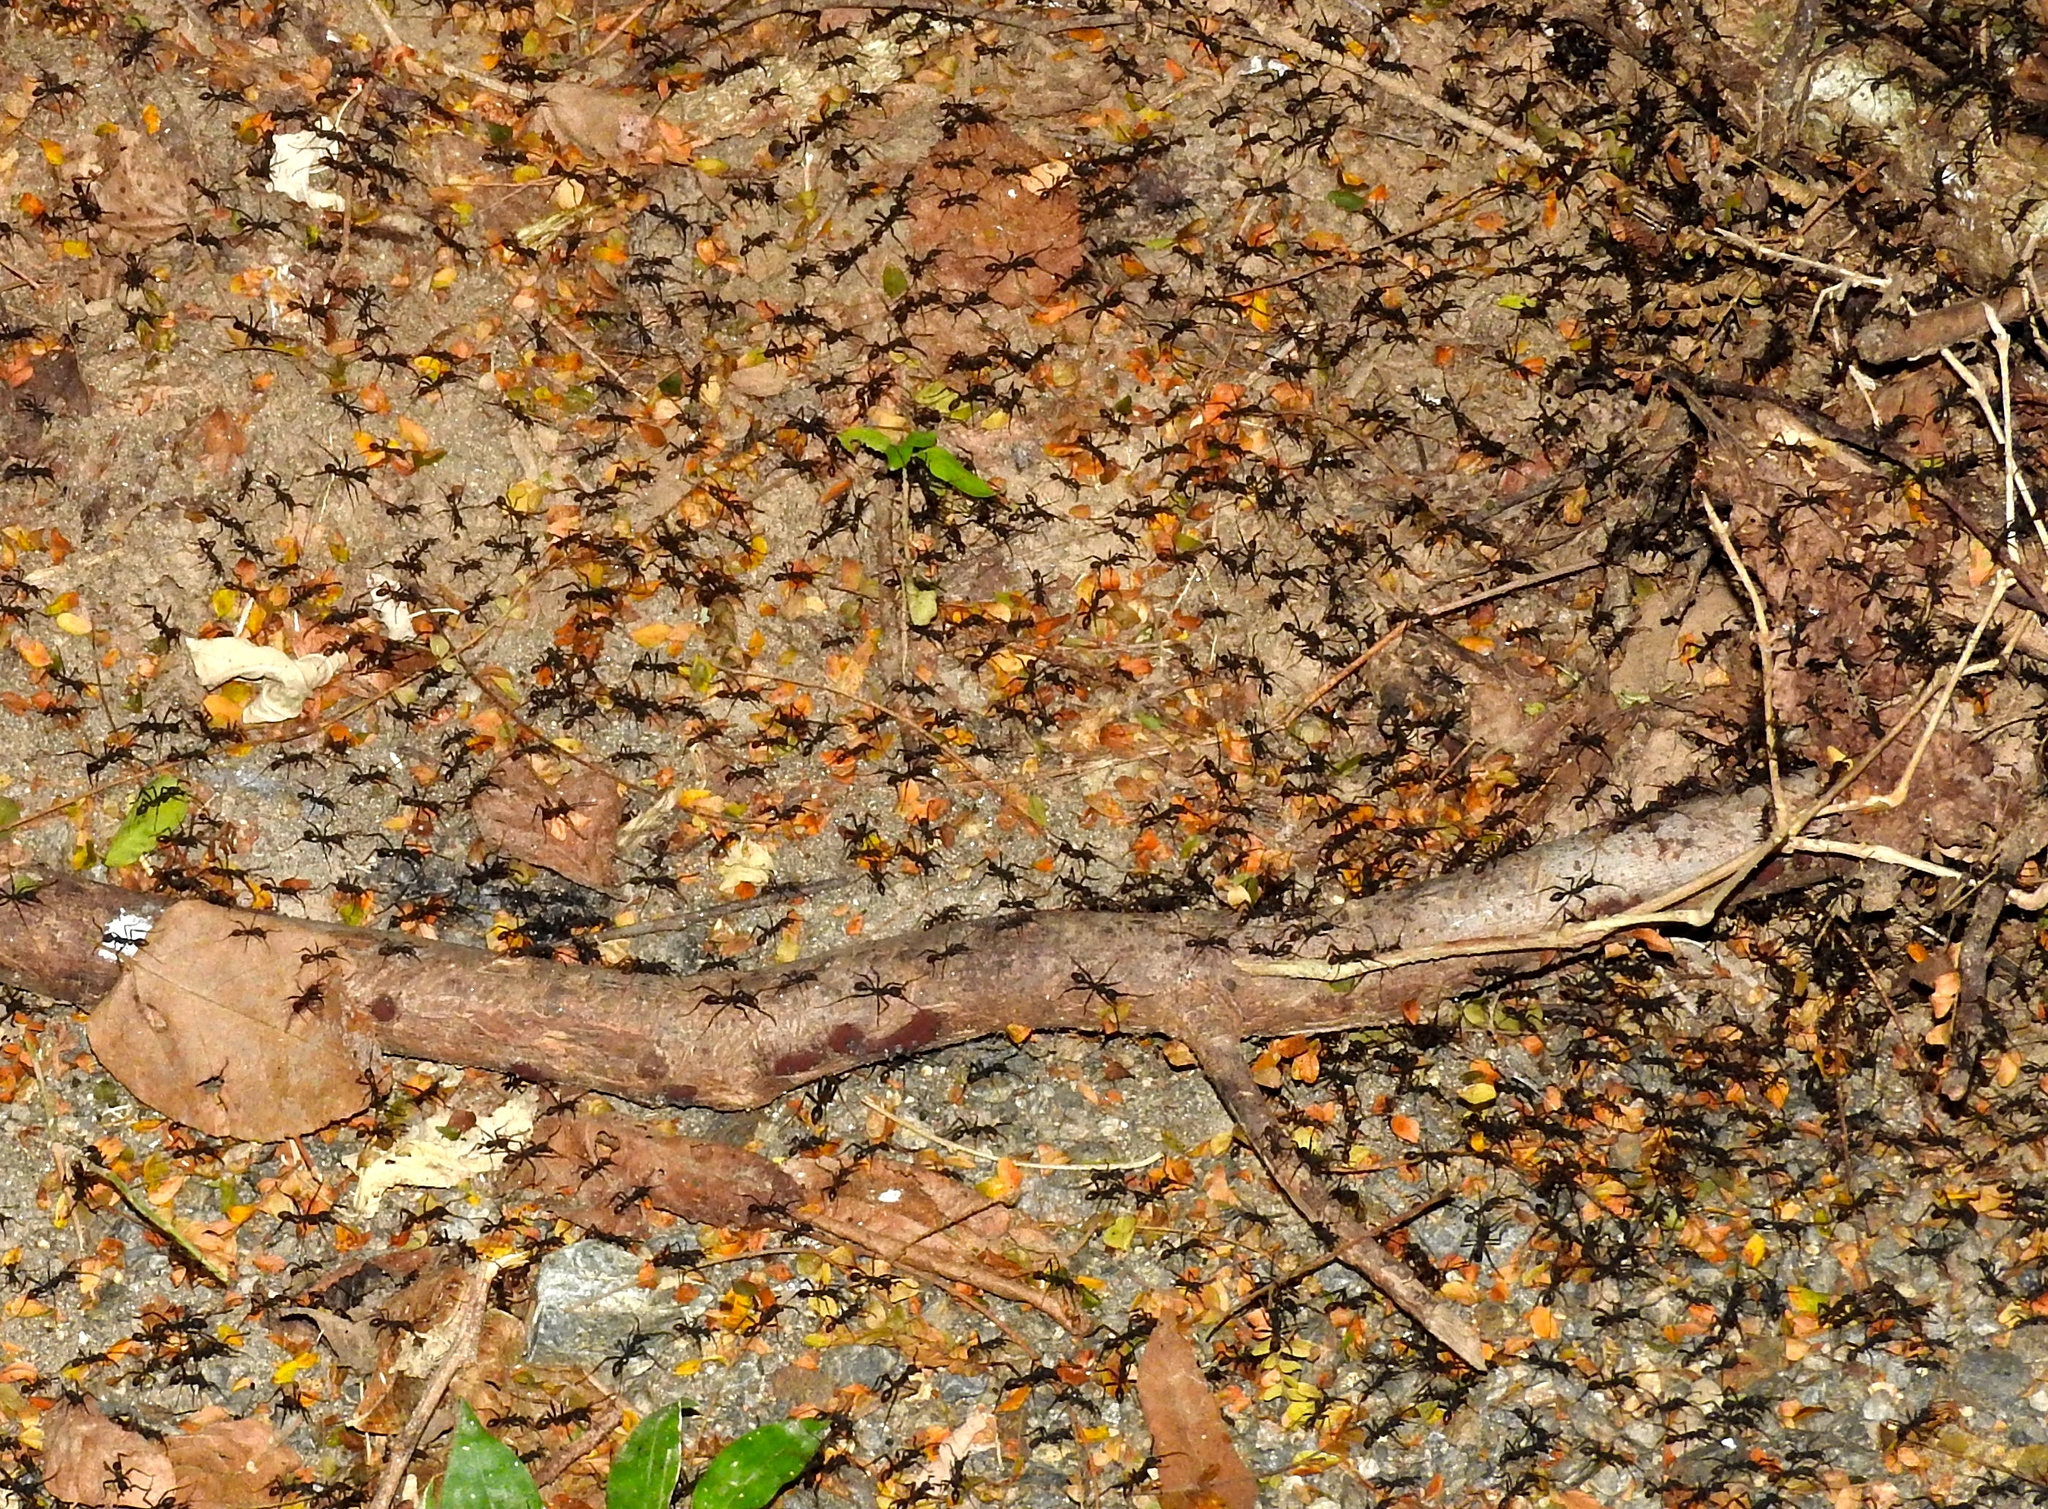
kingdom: Animalia
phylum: Arthropoda
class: Insecta
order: Hymenoptera
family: Formicidae
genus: Eciton
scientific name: Eciton
